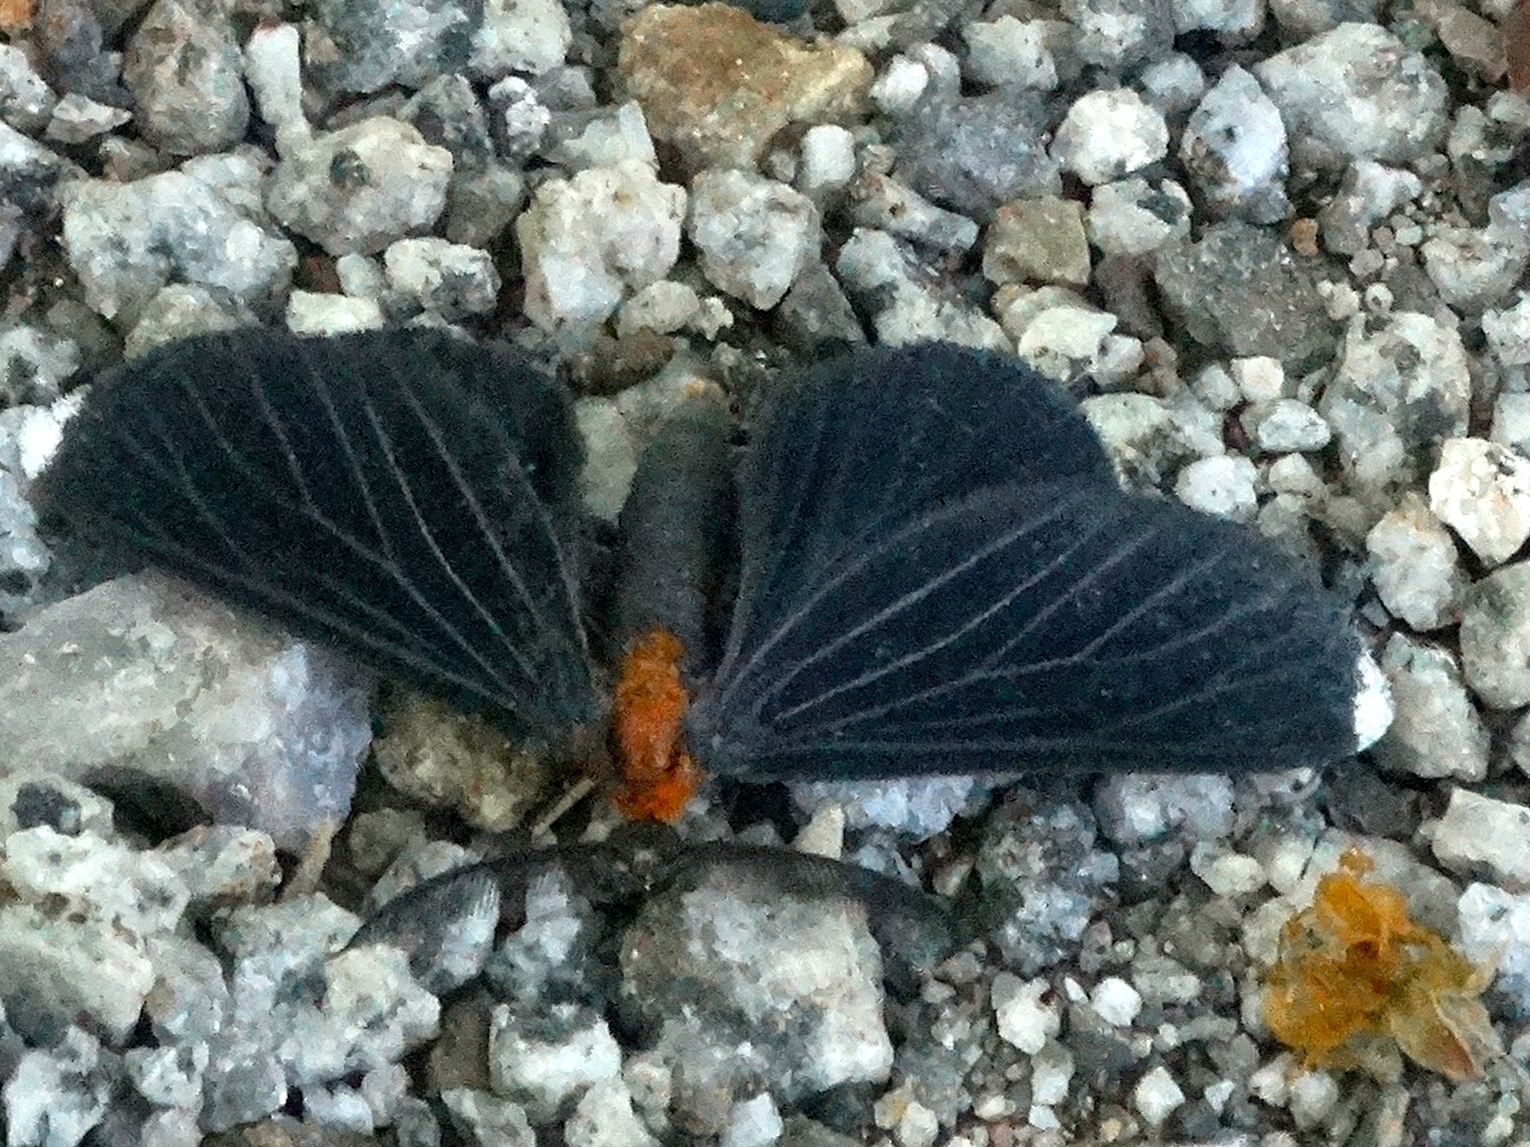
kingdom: Animalia
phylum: Arthropoda
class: Insecta
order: Lepidoptera
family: Geometridae
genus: Melanchroia
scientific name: Melanchroia chephise
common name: White-tipped black
